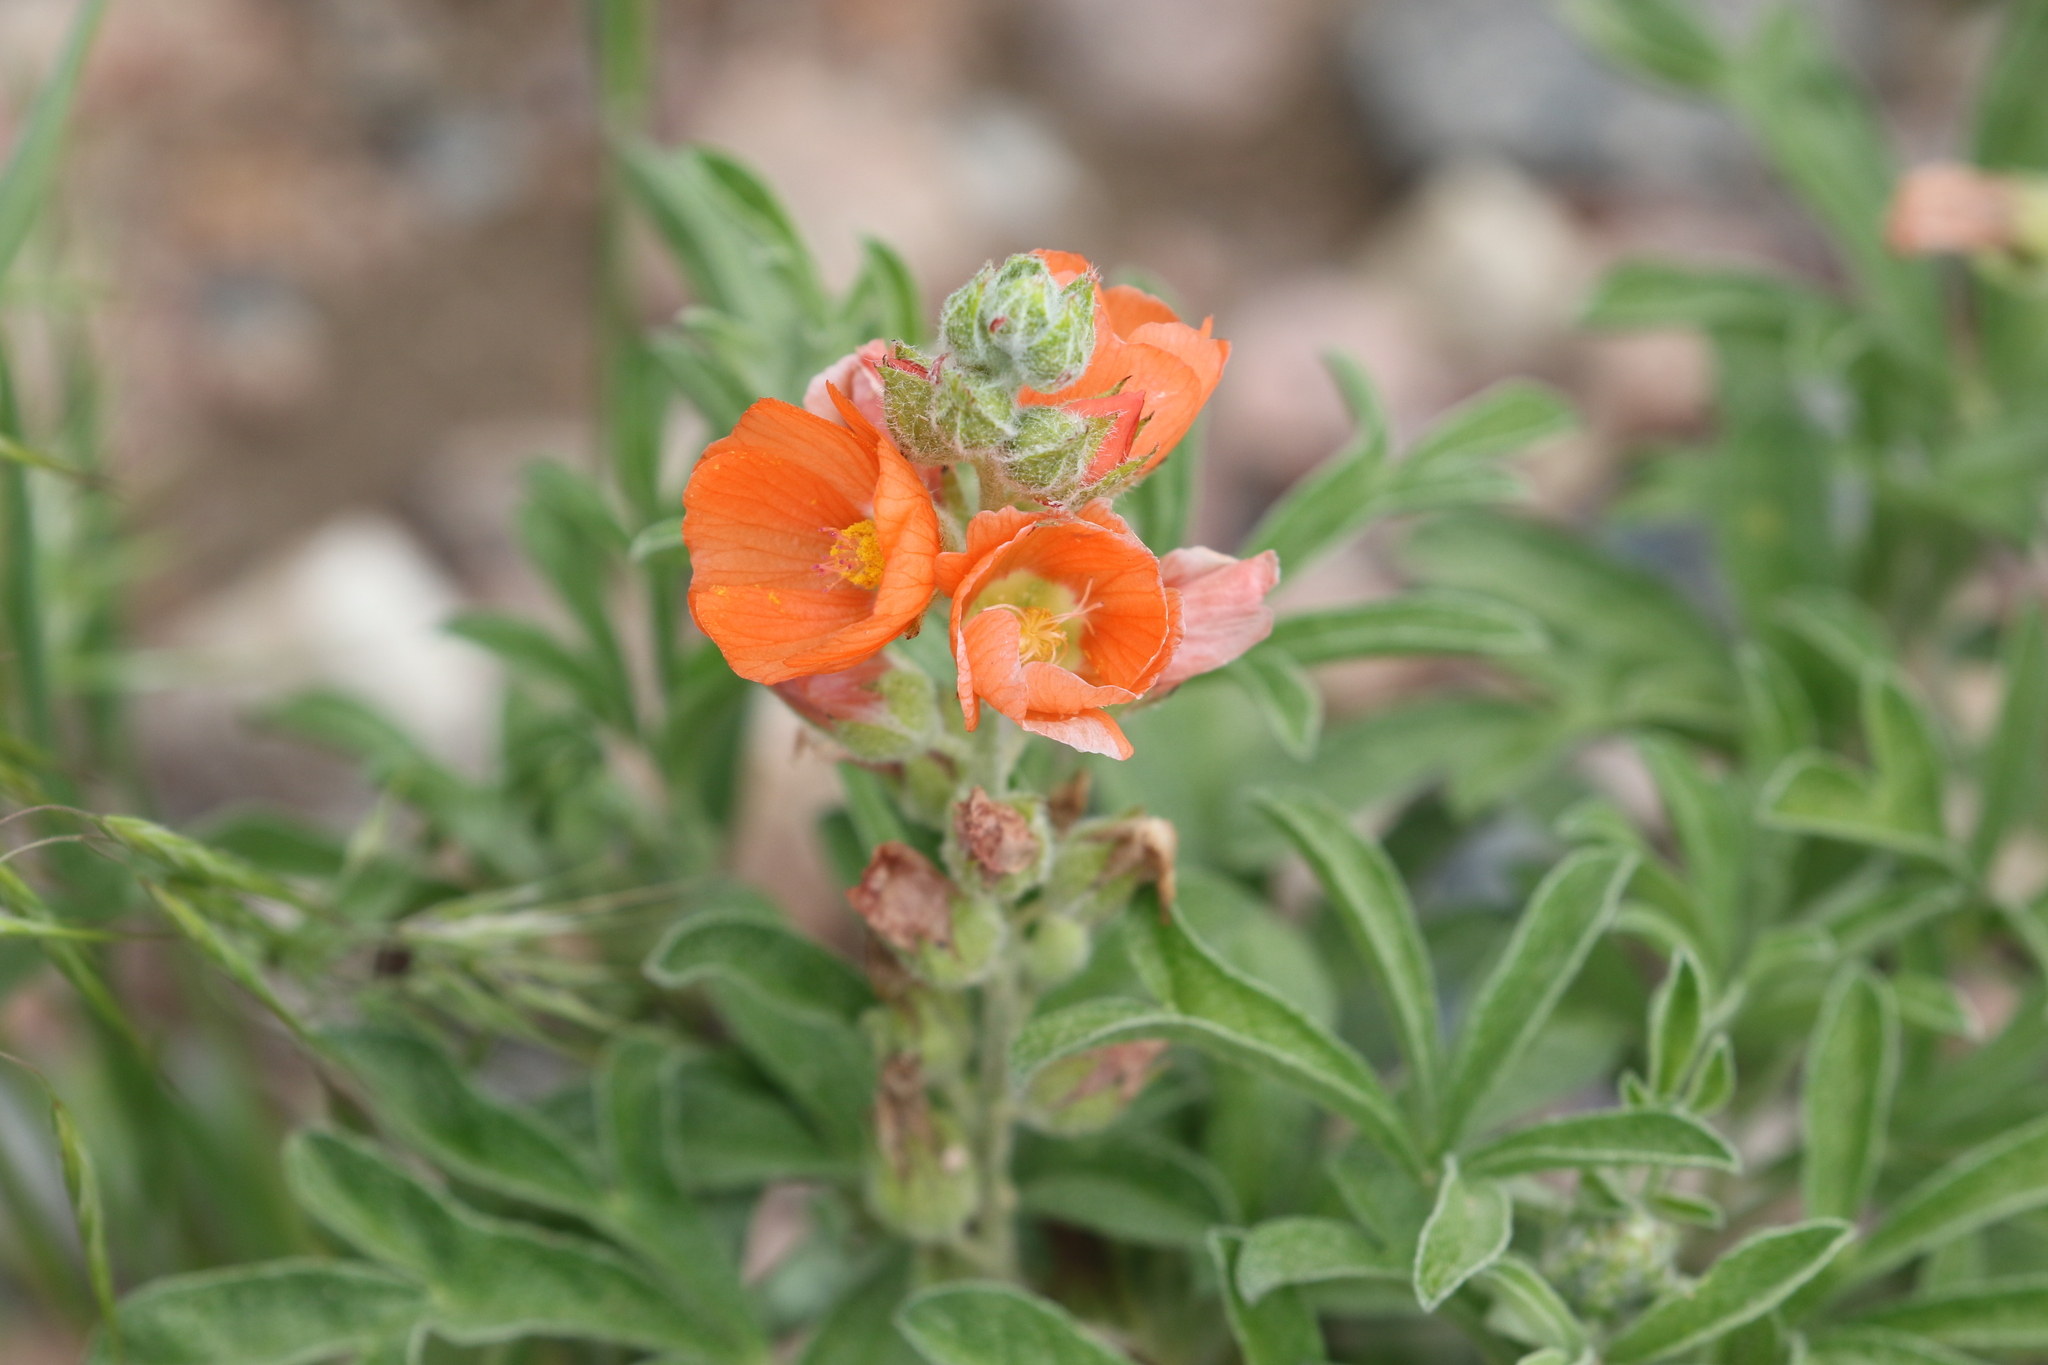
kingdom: Plantae
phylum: Tracheophyta
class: Magnoliopsida
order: Malvales
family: Malvaceae
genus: Sphaeralcea
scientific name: Sphaeralcea coccinea
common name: Moss-rose
